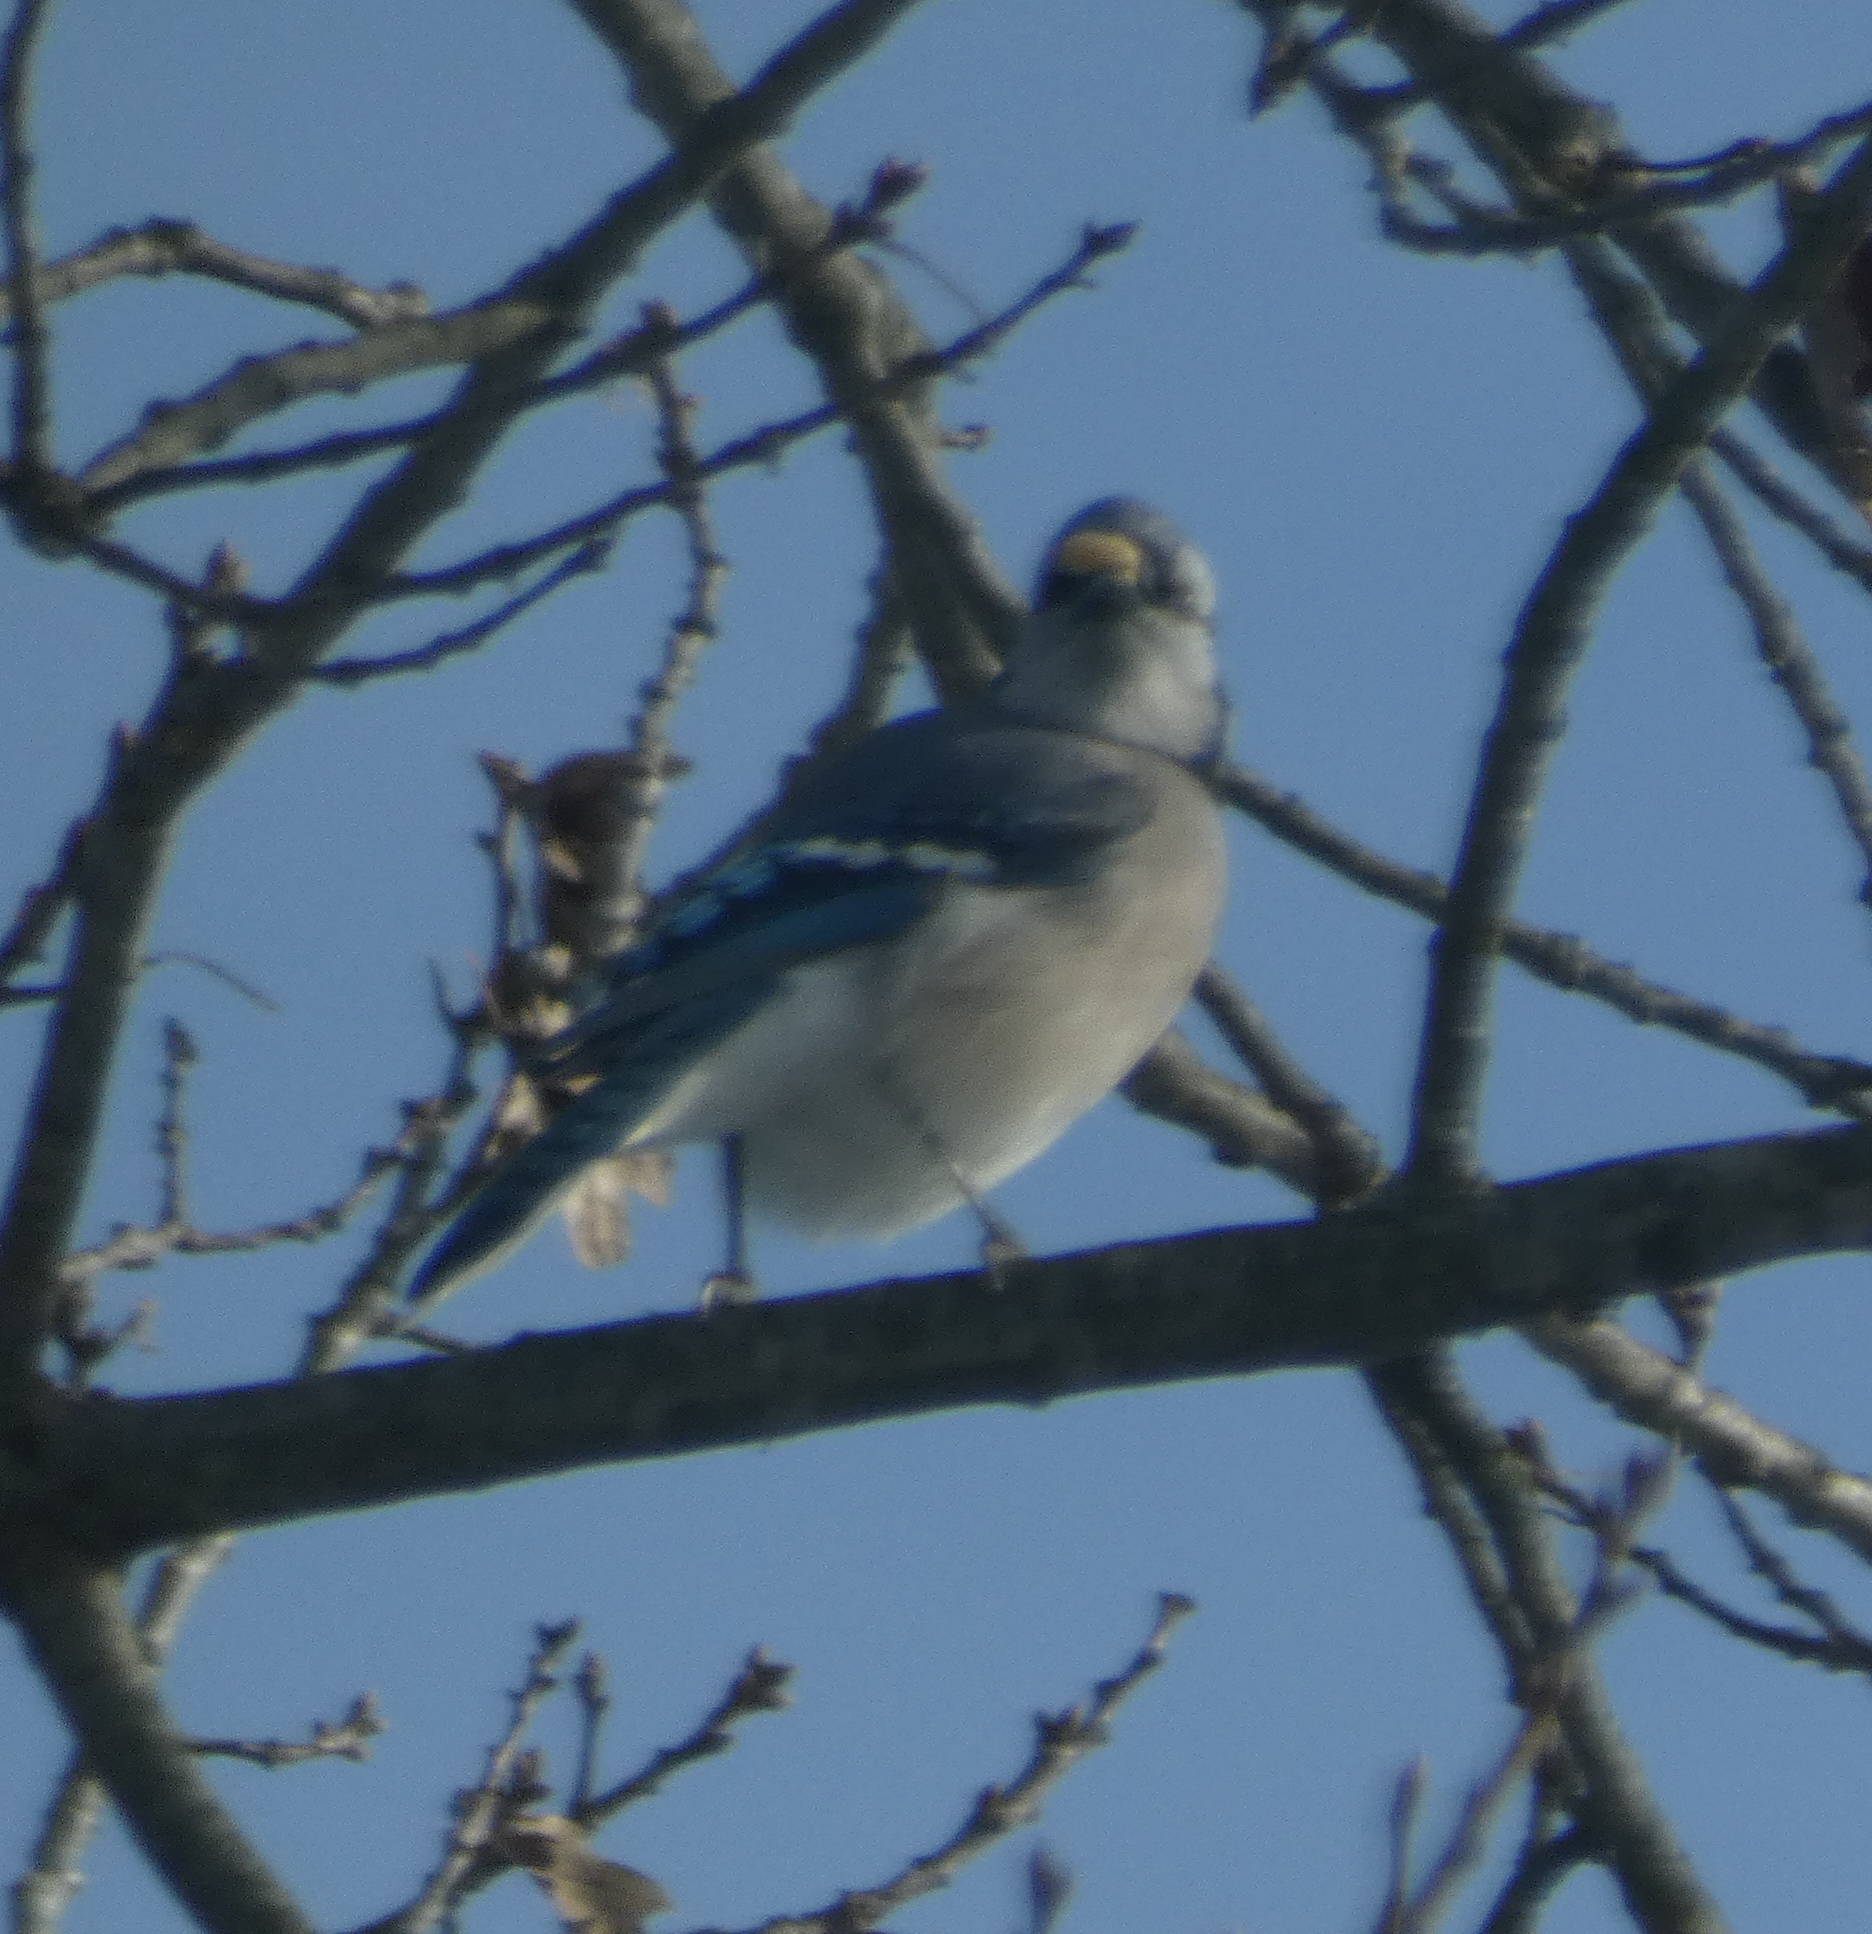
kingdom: Animalia
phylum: Chordata
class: Aves
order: Passeriformes
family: Corvidae
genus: Cyanocitta
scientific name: Cyanocitta cristata
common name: Blue jay
